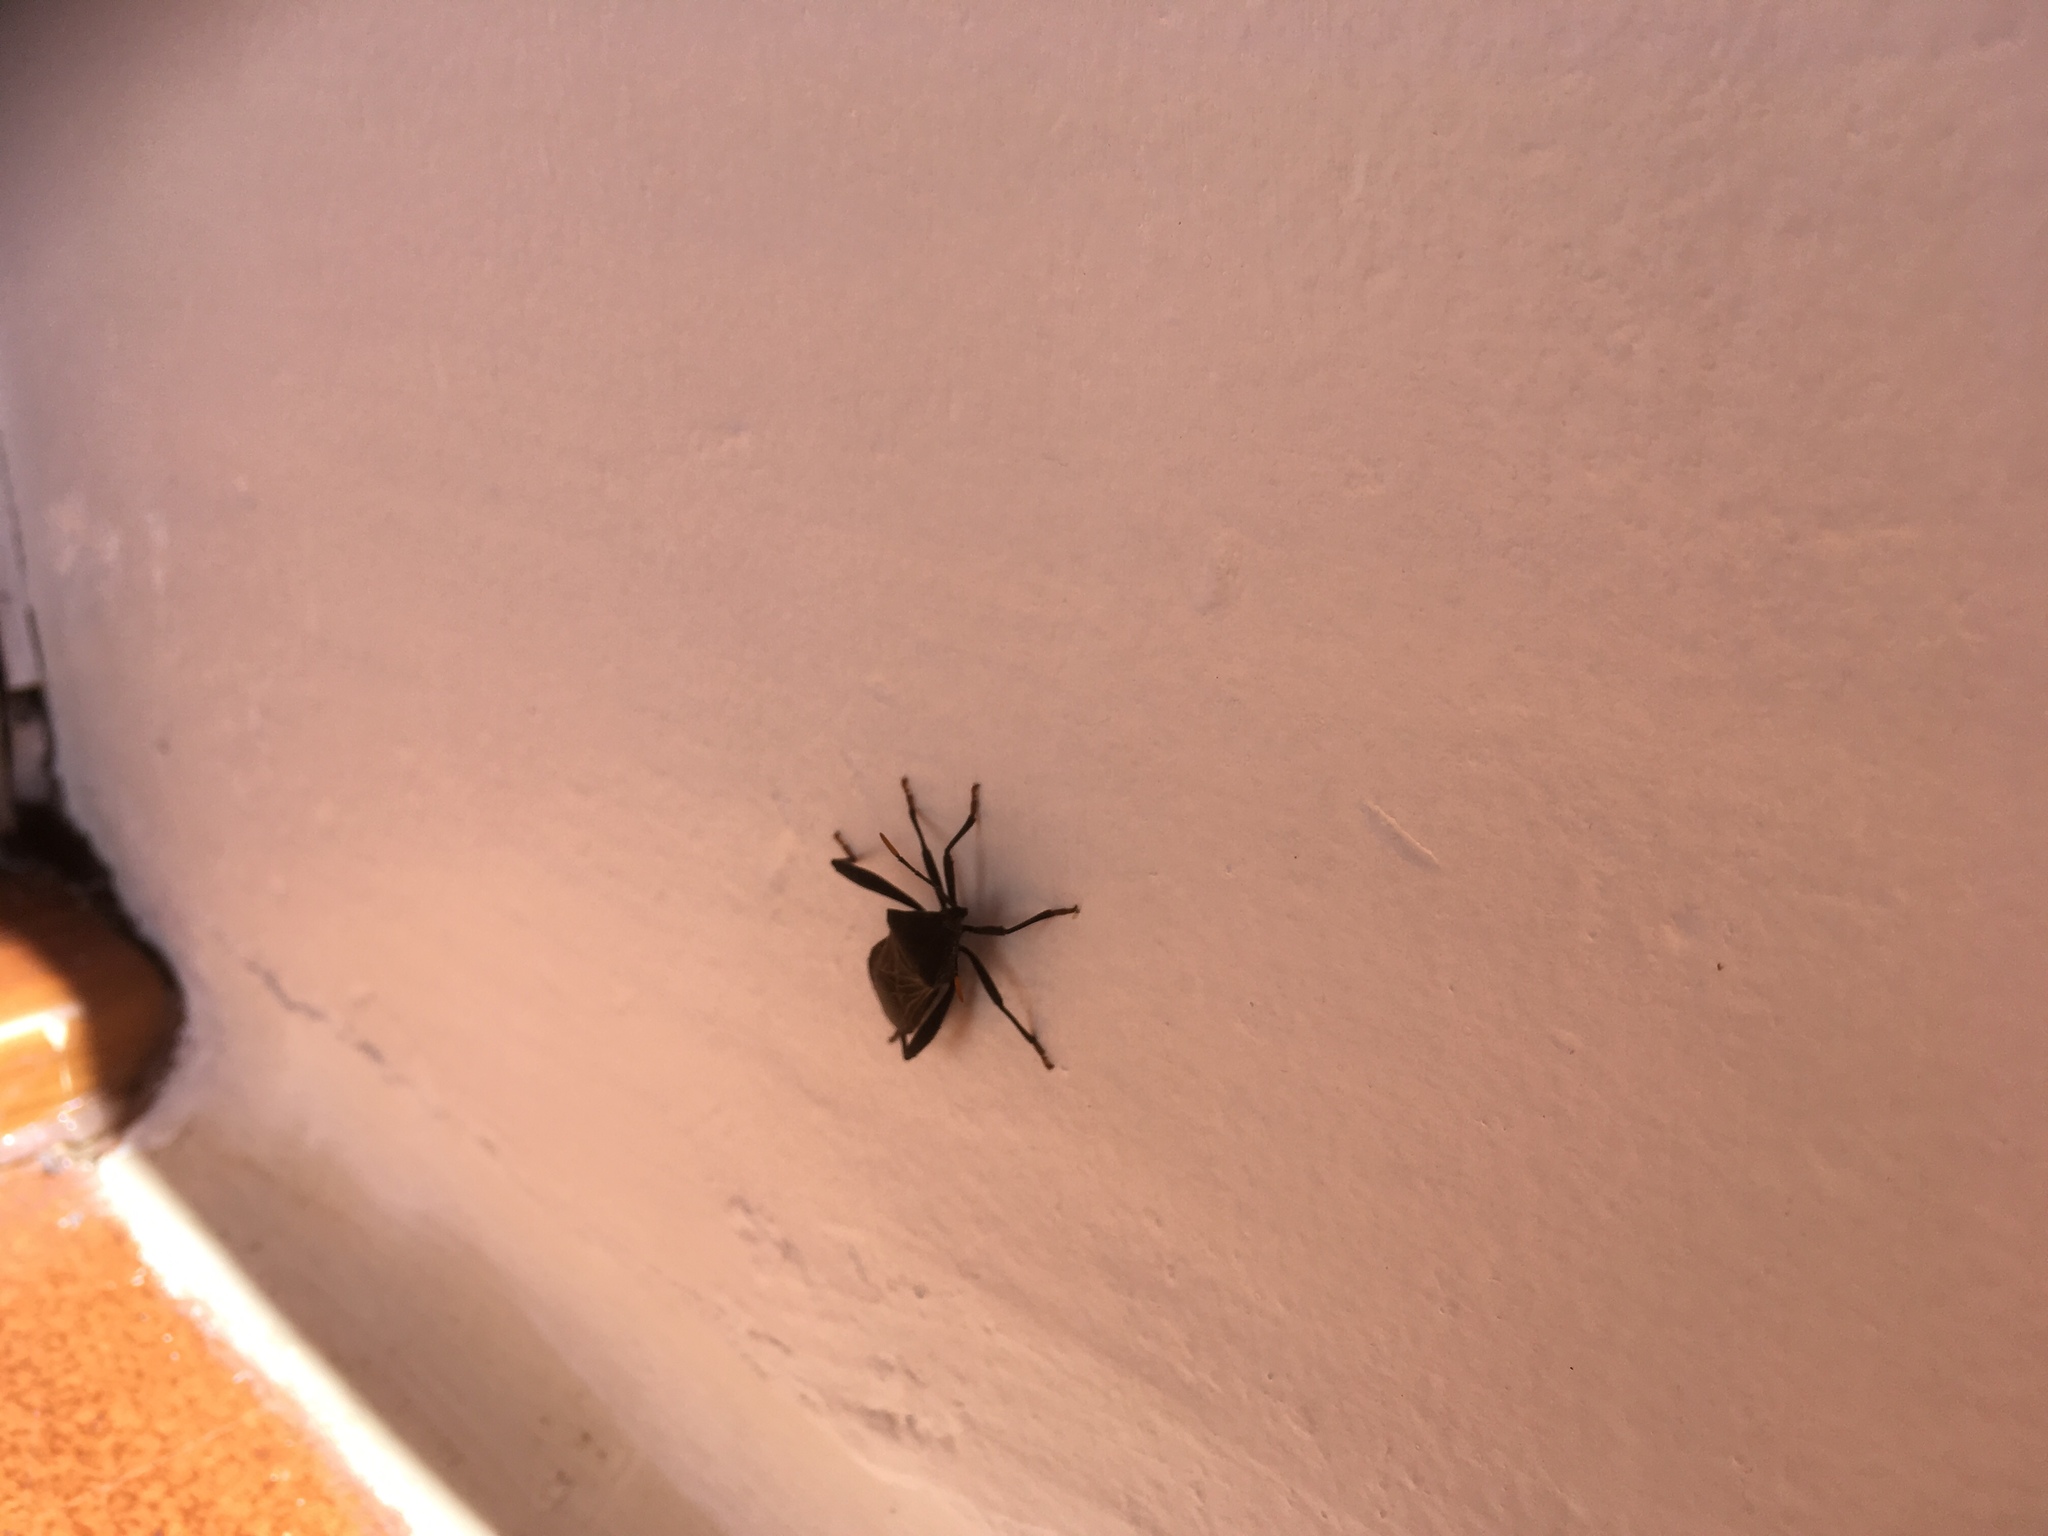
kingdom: Animalia
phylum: Arthropoda
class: Insecta
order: Hemiptera
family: Coreidae
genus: Piezogaster
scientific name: Piezogaster vates
